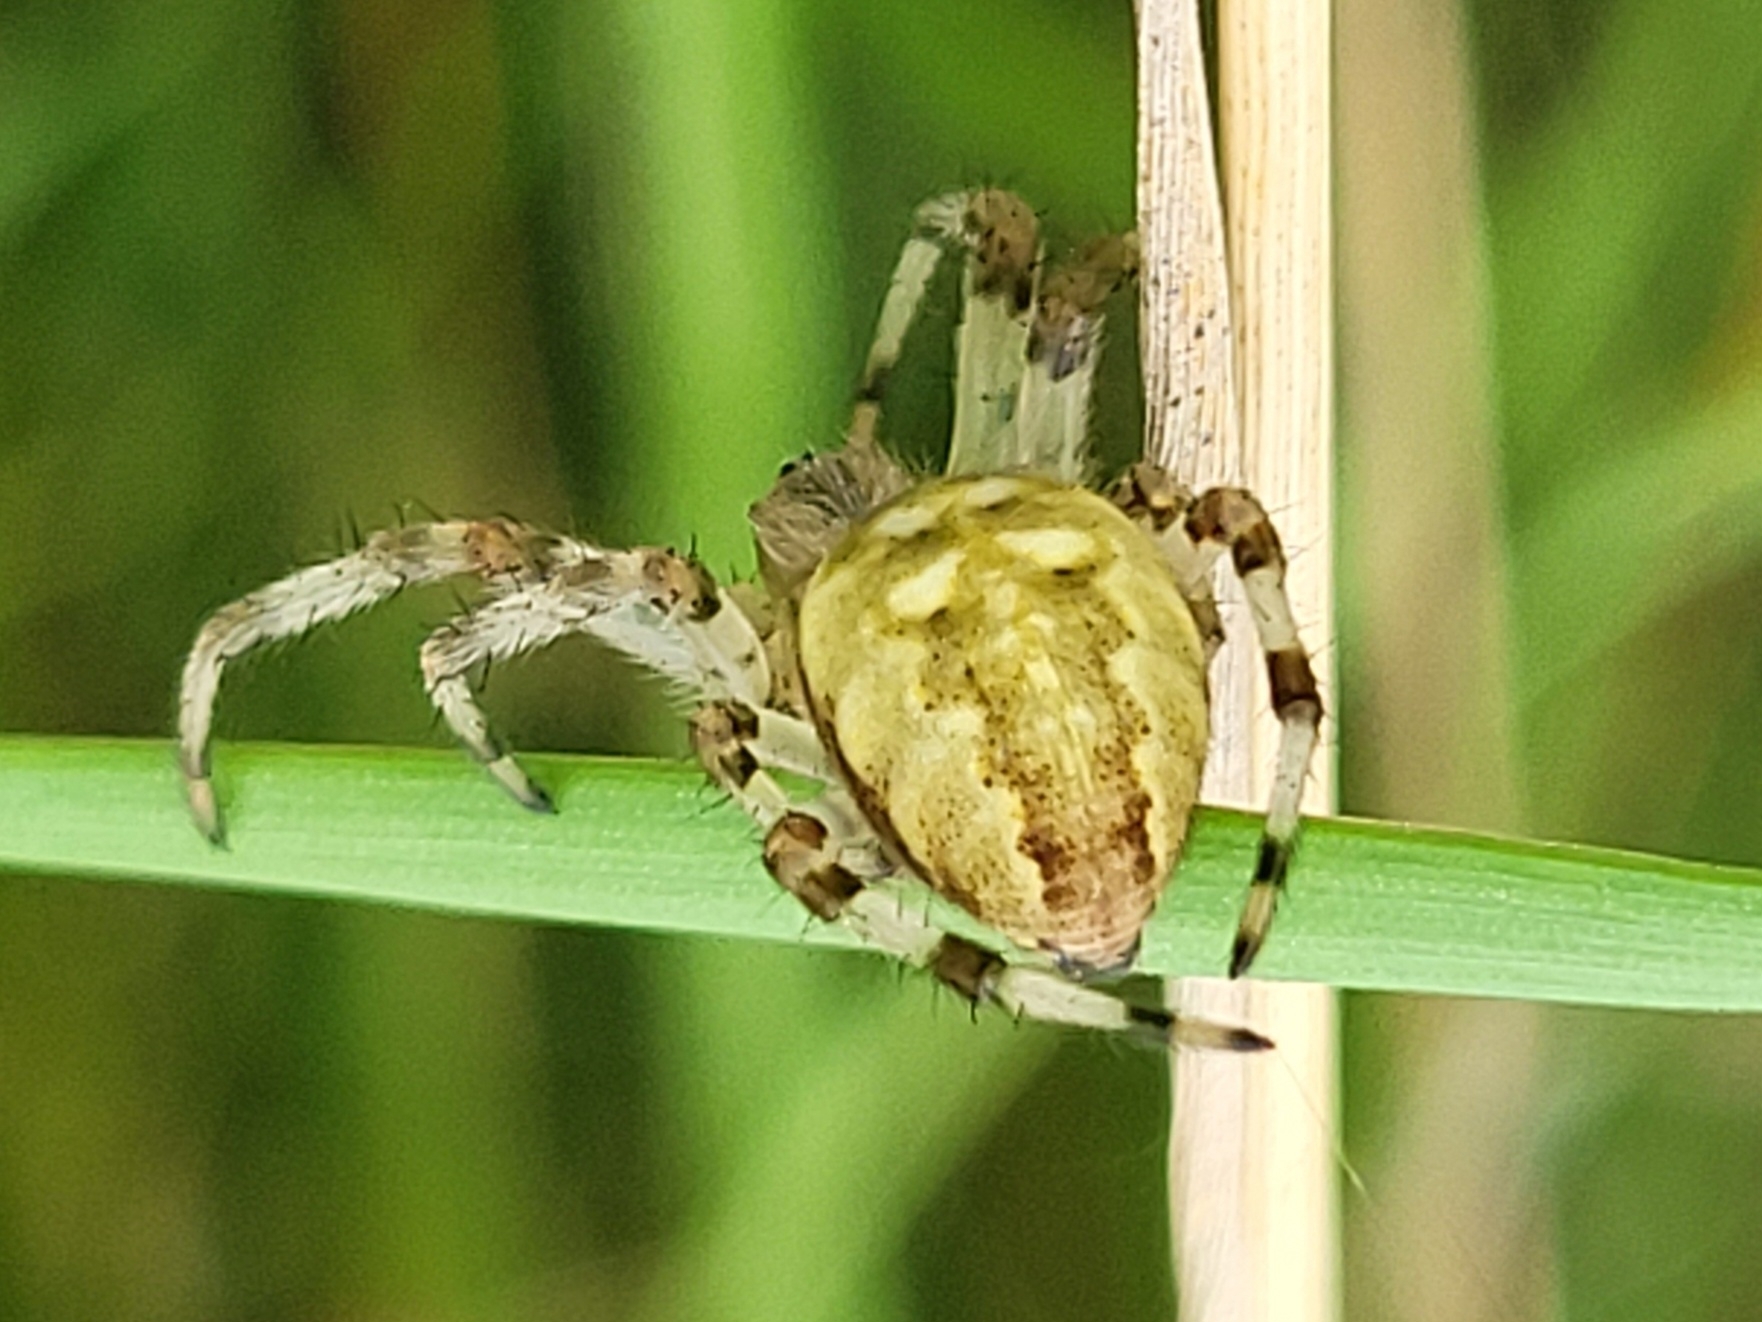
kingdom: Animalia
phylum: Arthropoda
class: Arachnida
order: Araneae
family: Araneidae
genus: Araneus
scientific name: Araneus quadratus
